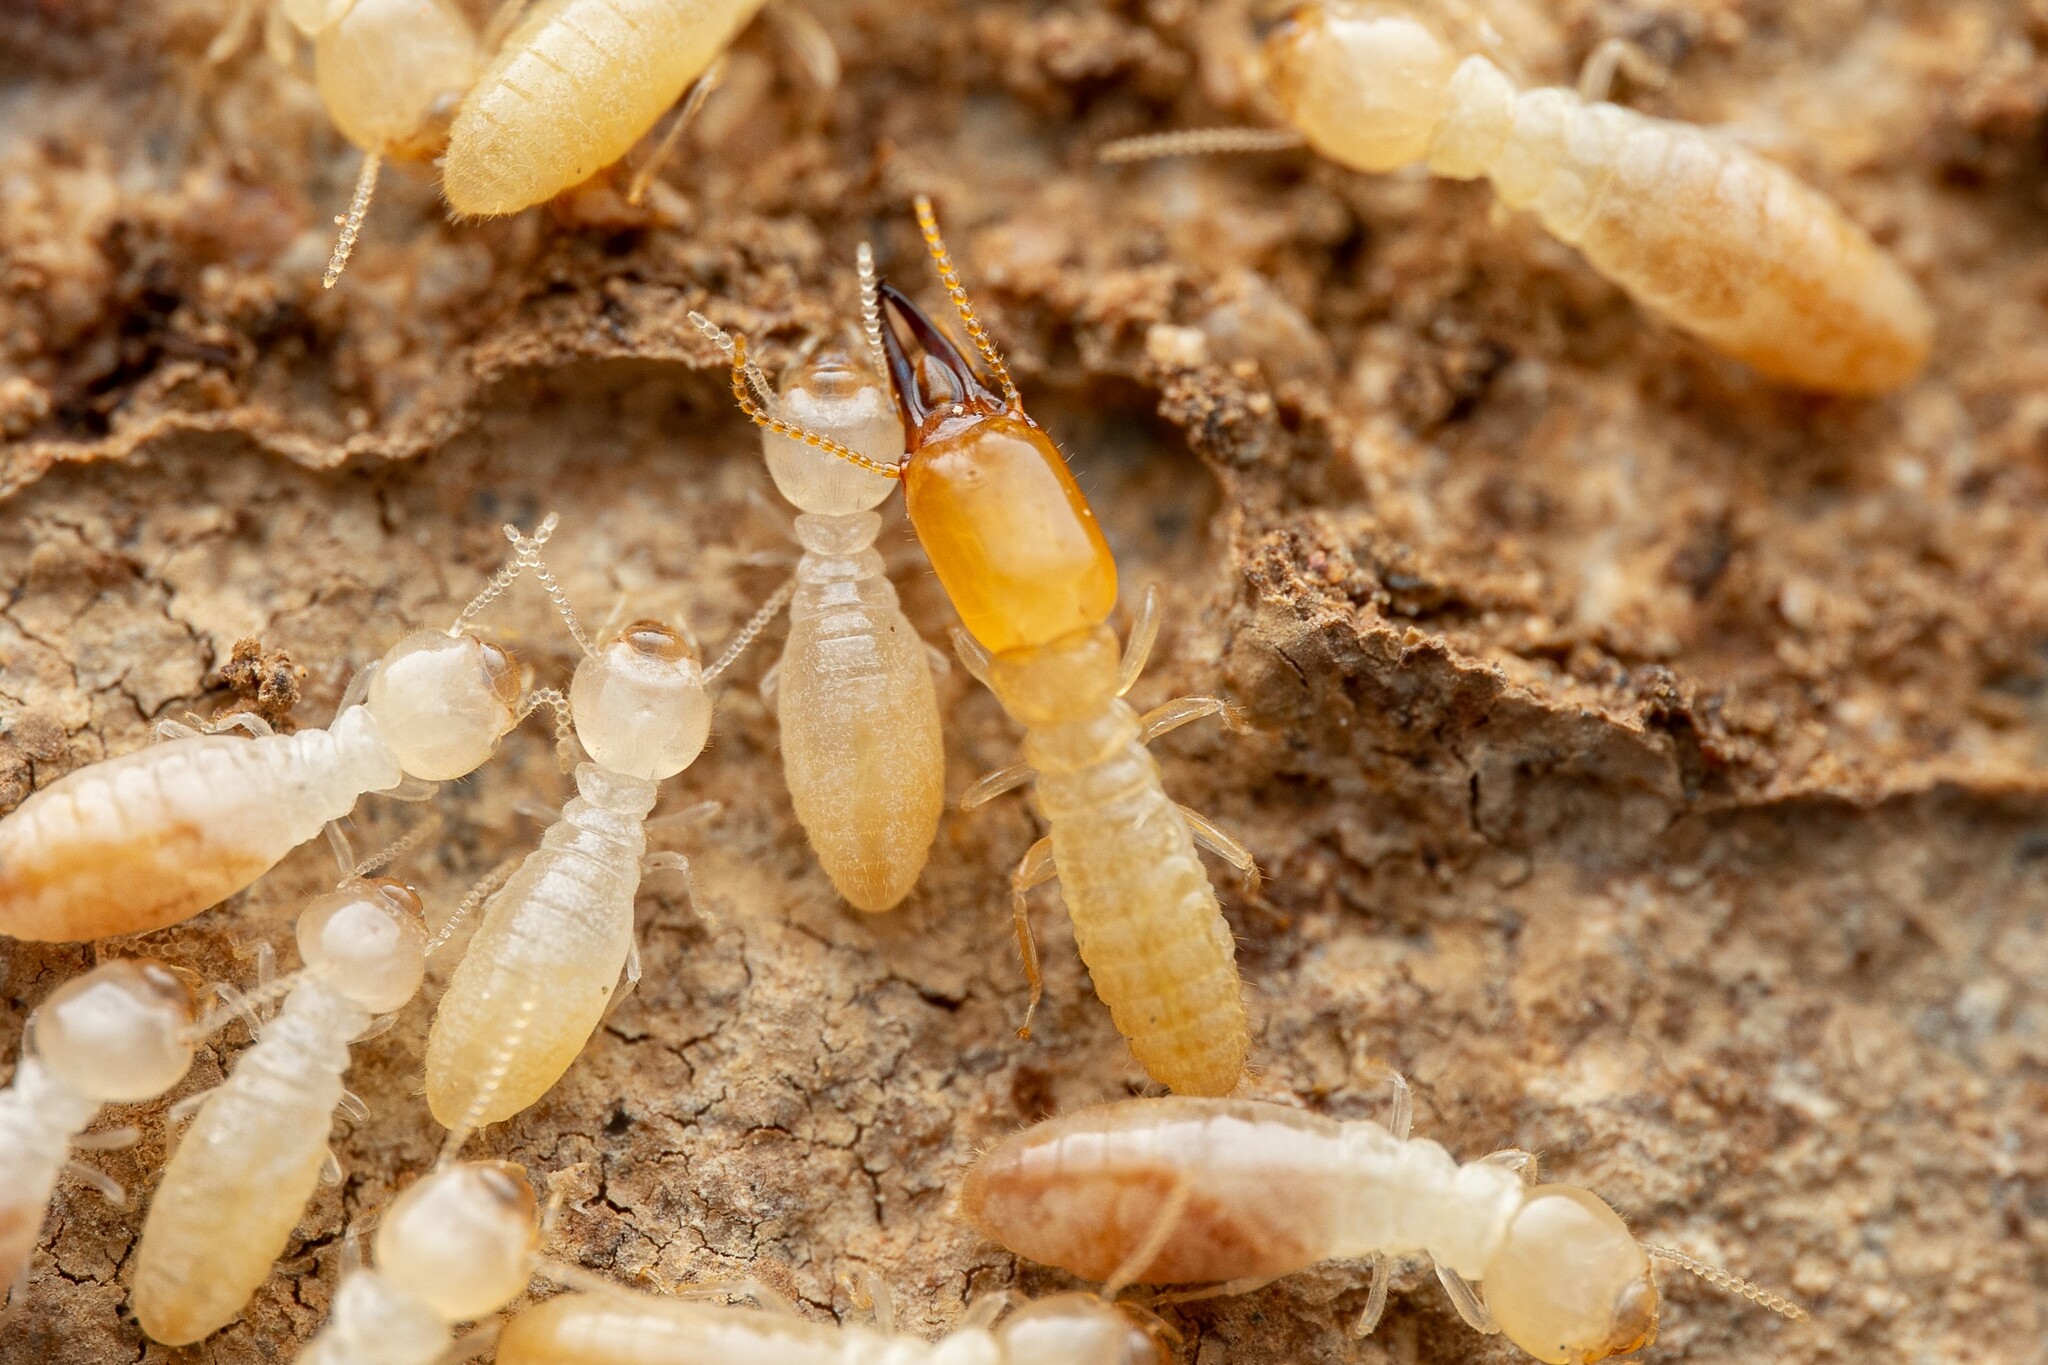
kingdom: Animalia
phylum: Arthropoda
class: Insecta
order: Blattodea
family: Rhinotermitidae
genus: Heterotermes
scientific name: Heterotermes aureus
